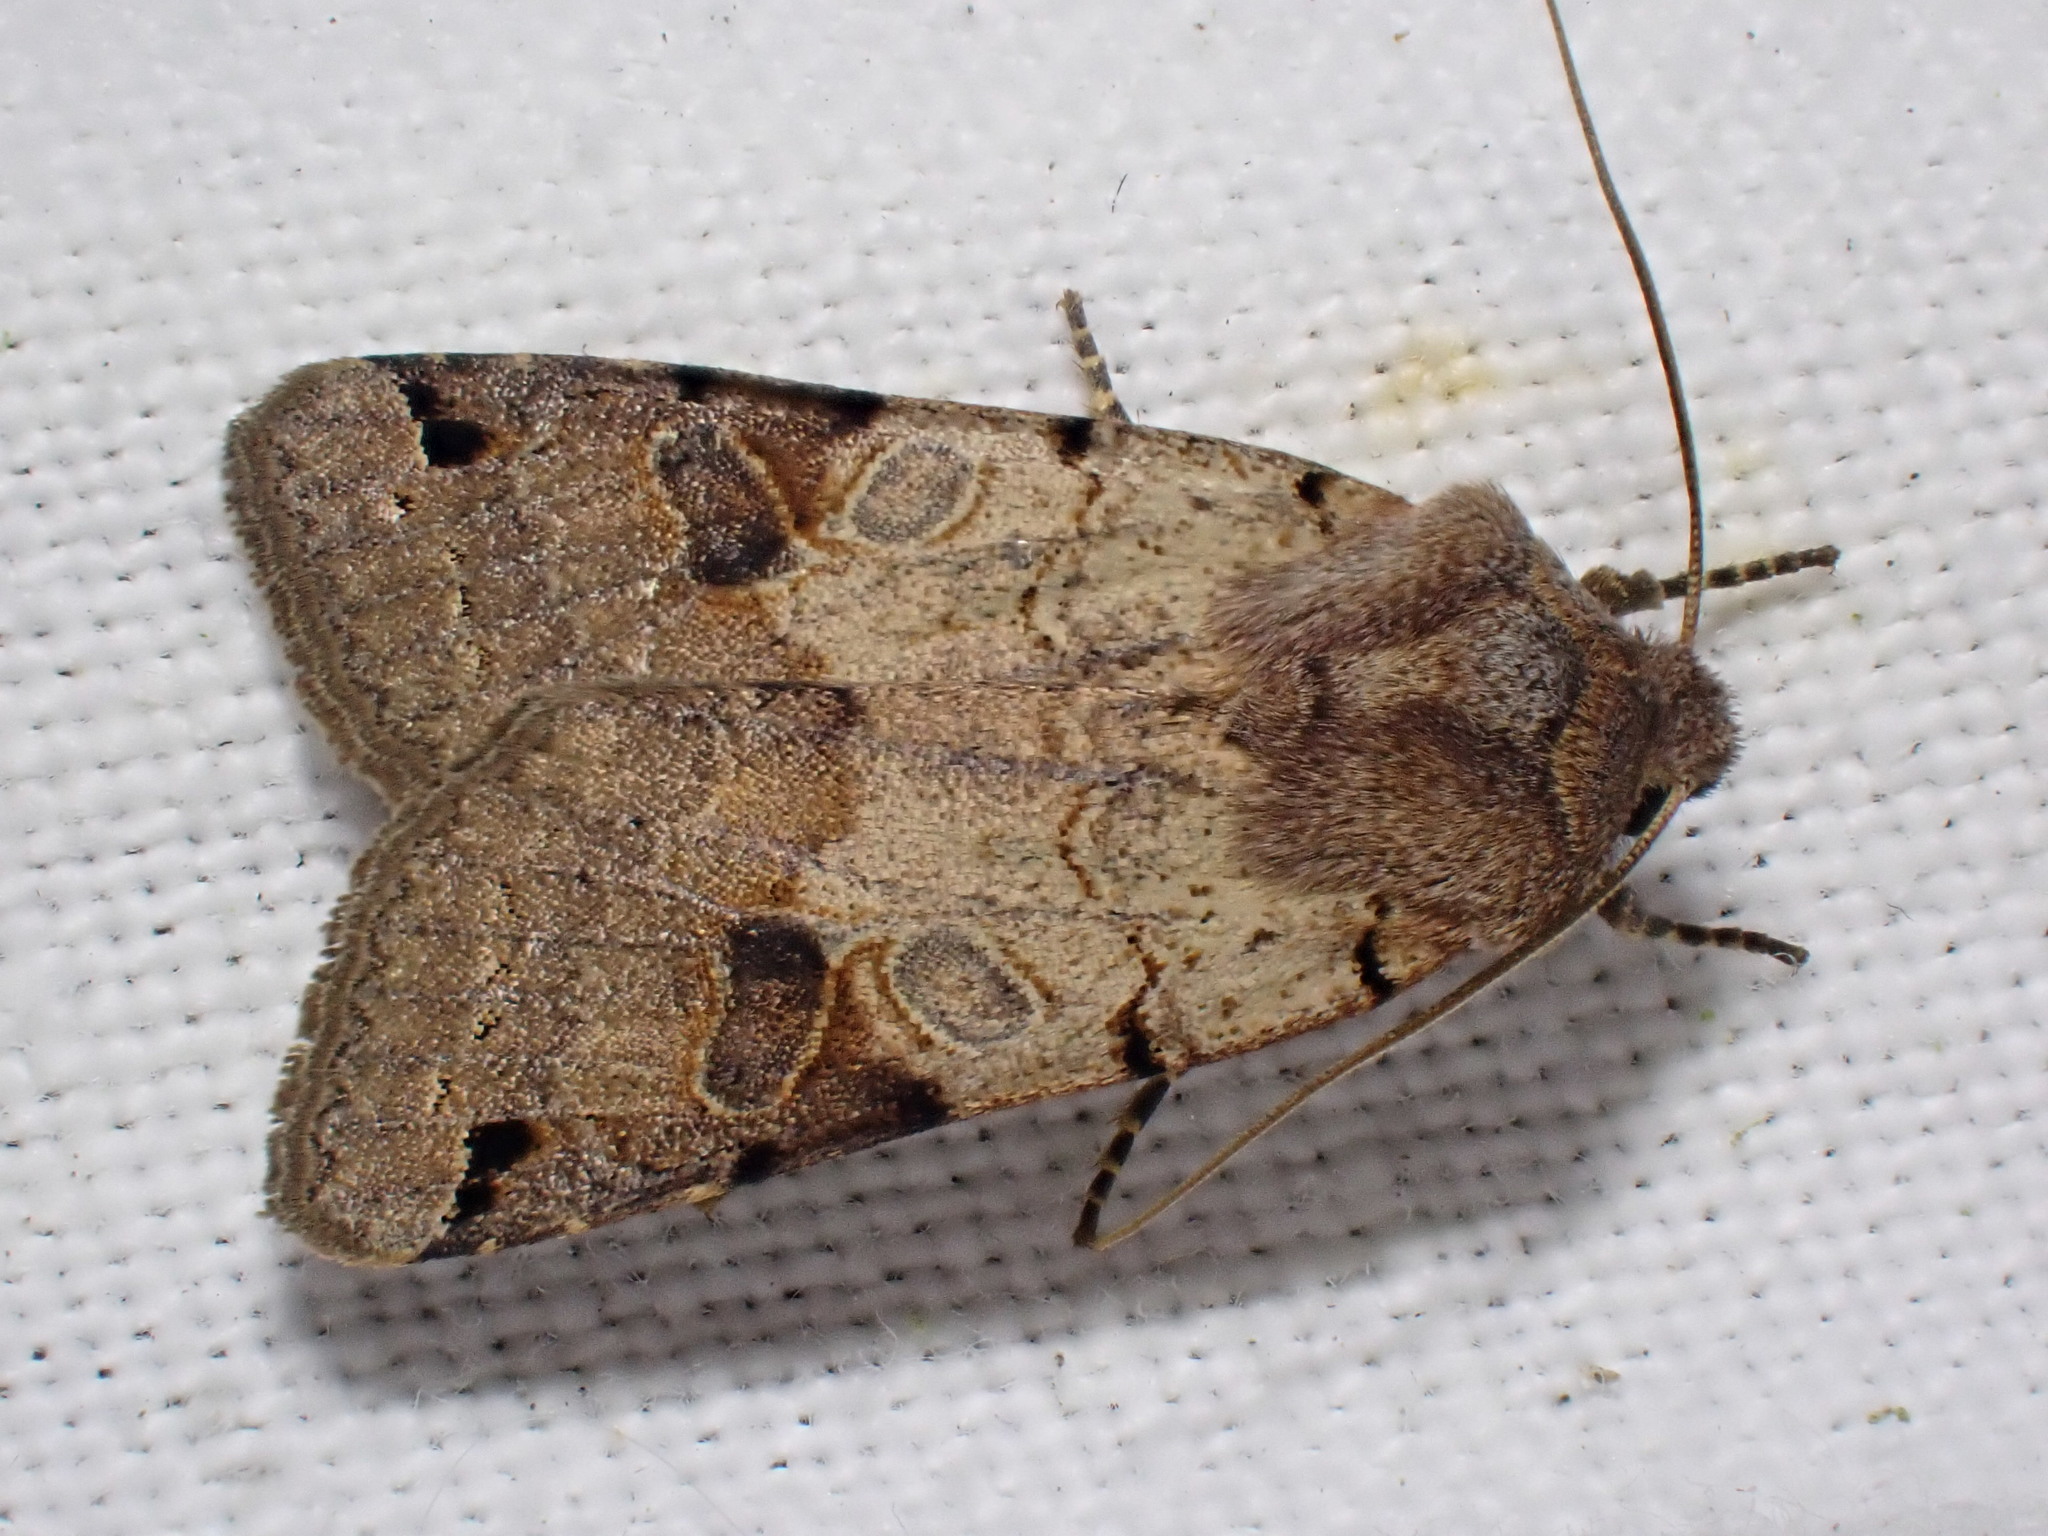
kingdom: Animalia
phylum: Arthropoda
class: Insecta
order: Lepidoptera
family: Noctuidae
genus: Agrochola
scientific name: Agrochola litura
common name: Brown-spot pinion
